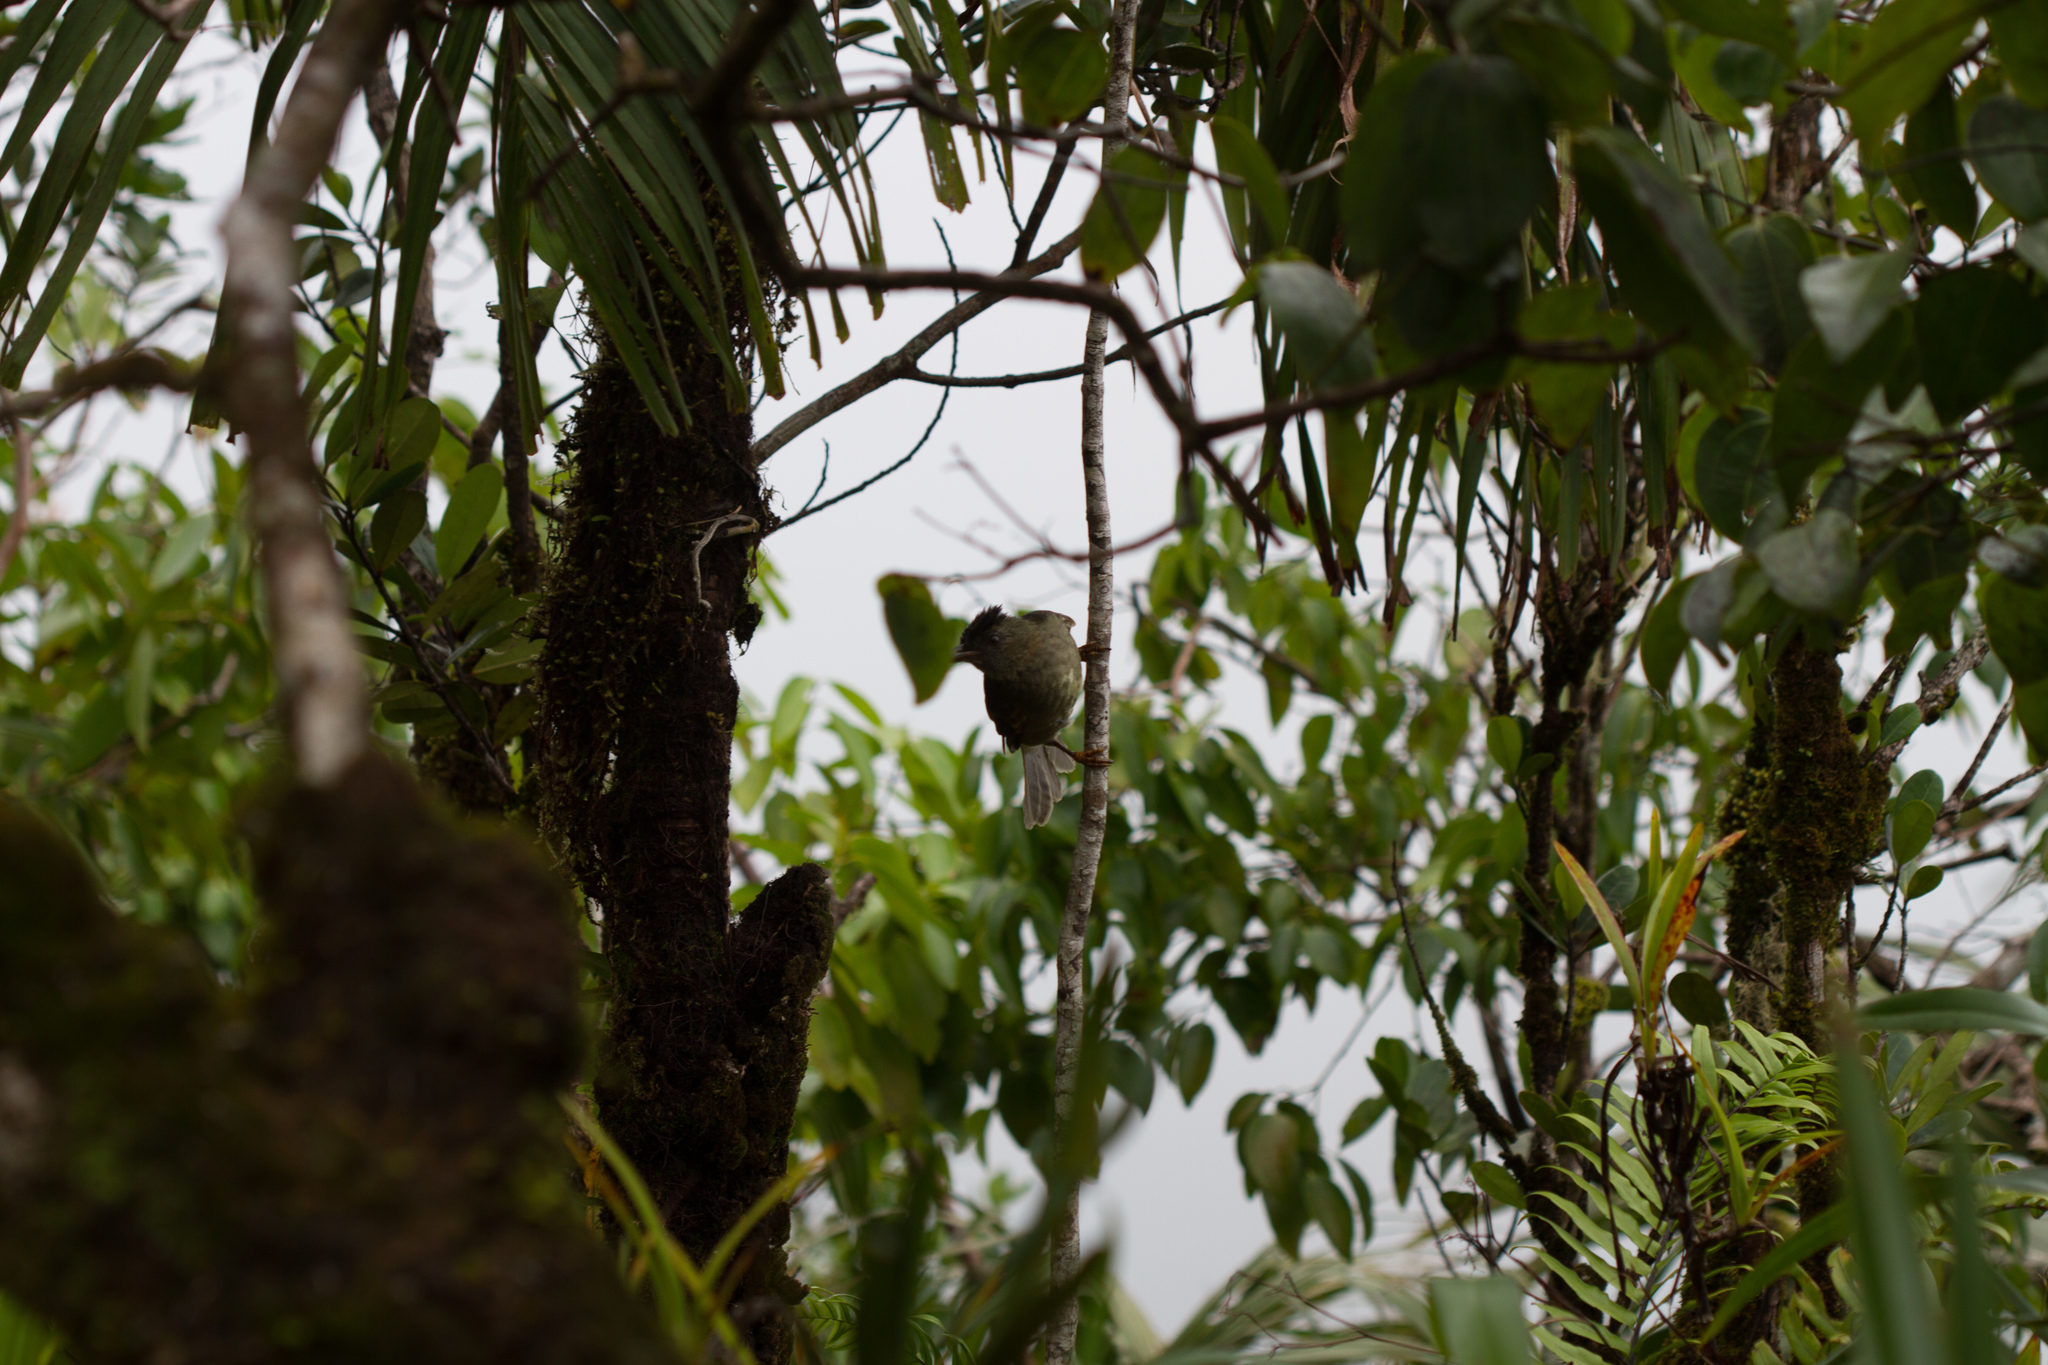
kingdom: Animalia
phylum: Chordata
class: Aves
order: Passeriformes
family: Pycnonotidae
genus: Hypsipetes
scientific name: Hypsipetes crassirostris
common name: Seychelles bulbul
